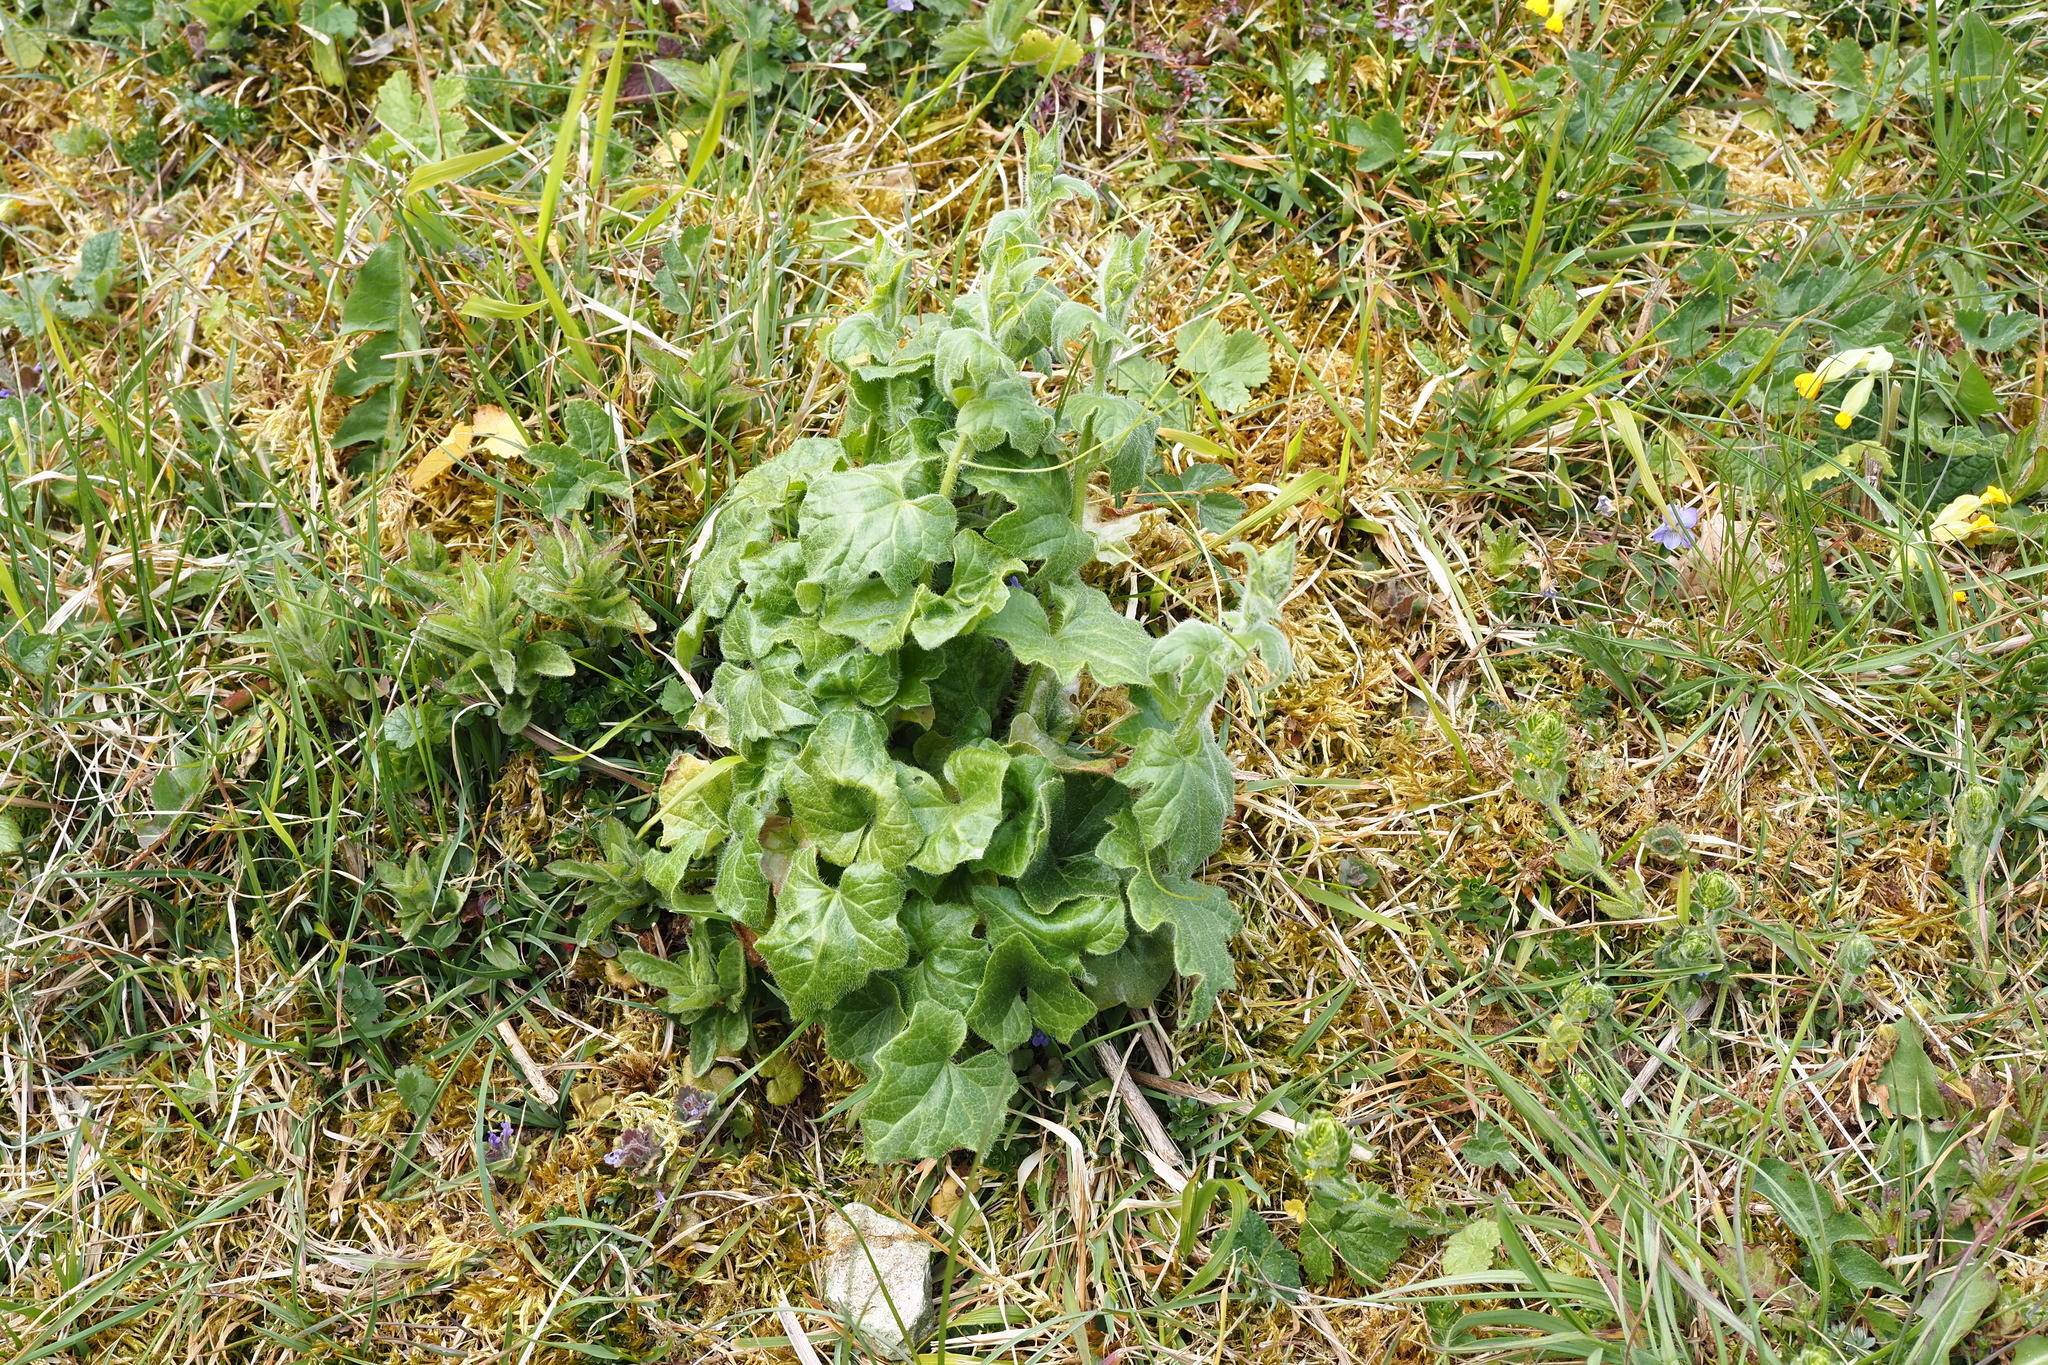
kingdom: Plantae
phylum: Tracheophyta
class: Magnoliopsida
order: Cucurbitales
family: Cucurbitaceae
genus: Bryonia
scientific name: Bryonia cretica
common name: Cretan bryony
